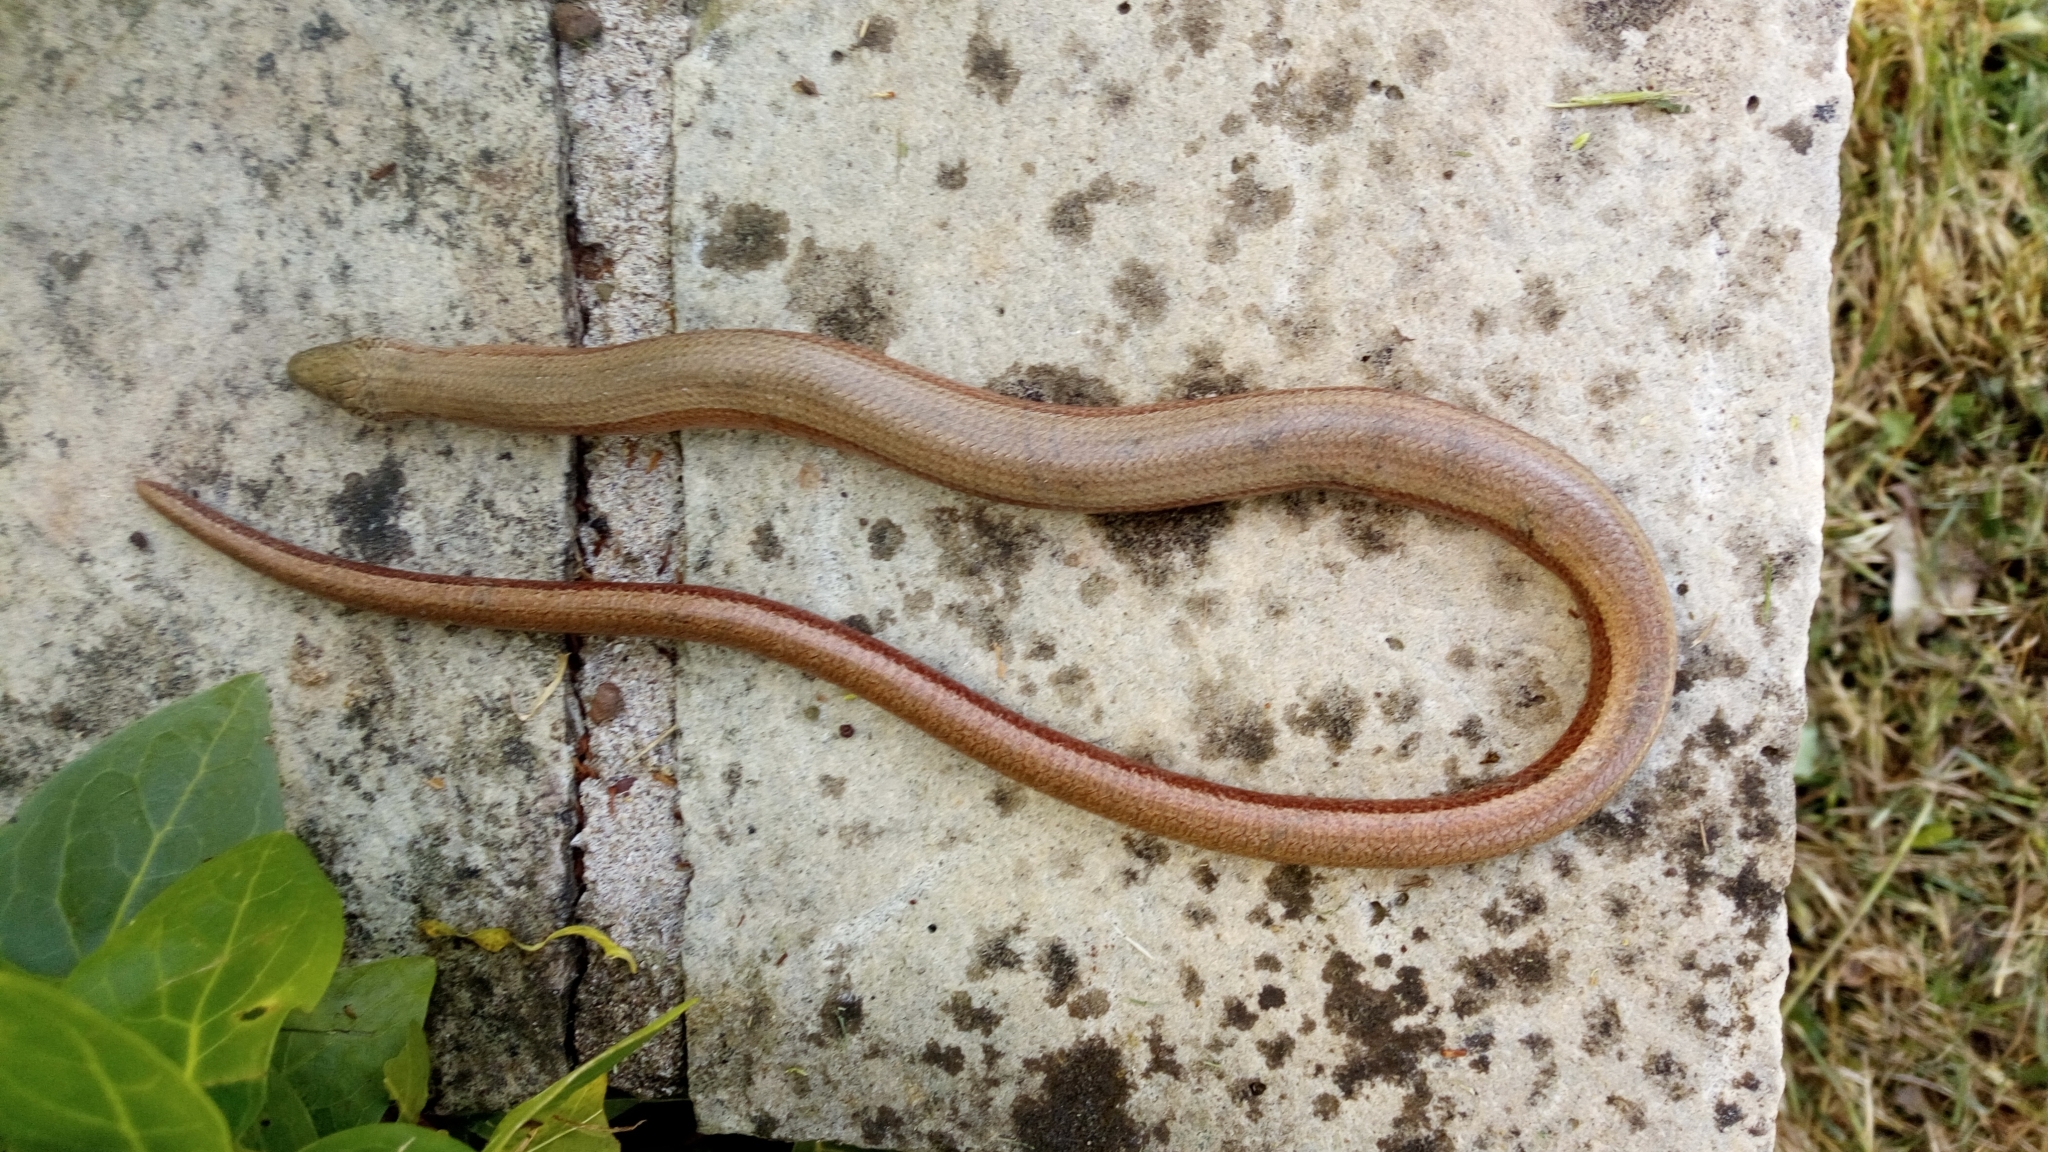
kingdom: Animalia
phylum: Chordata
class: Squamata
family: Anguidae
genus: Anguis
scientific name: Anguis fragilis
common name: Slow worm
